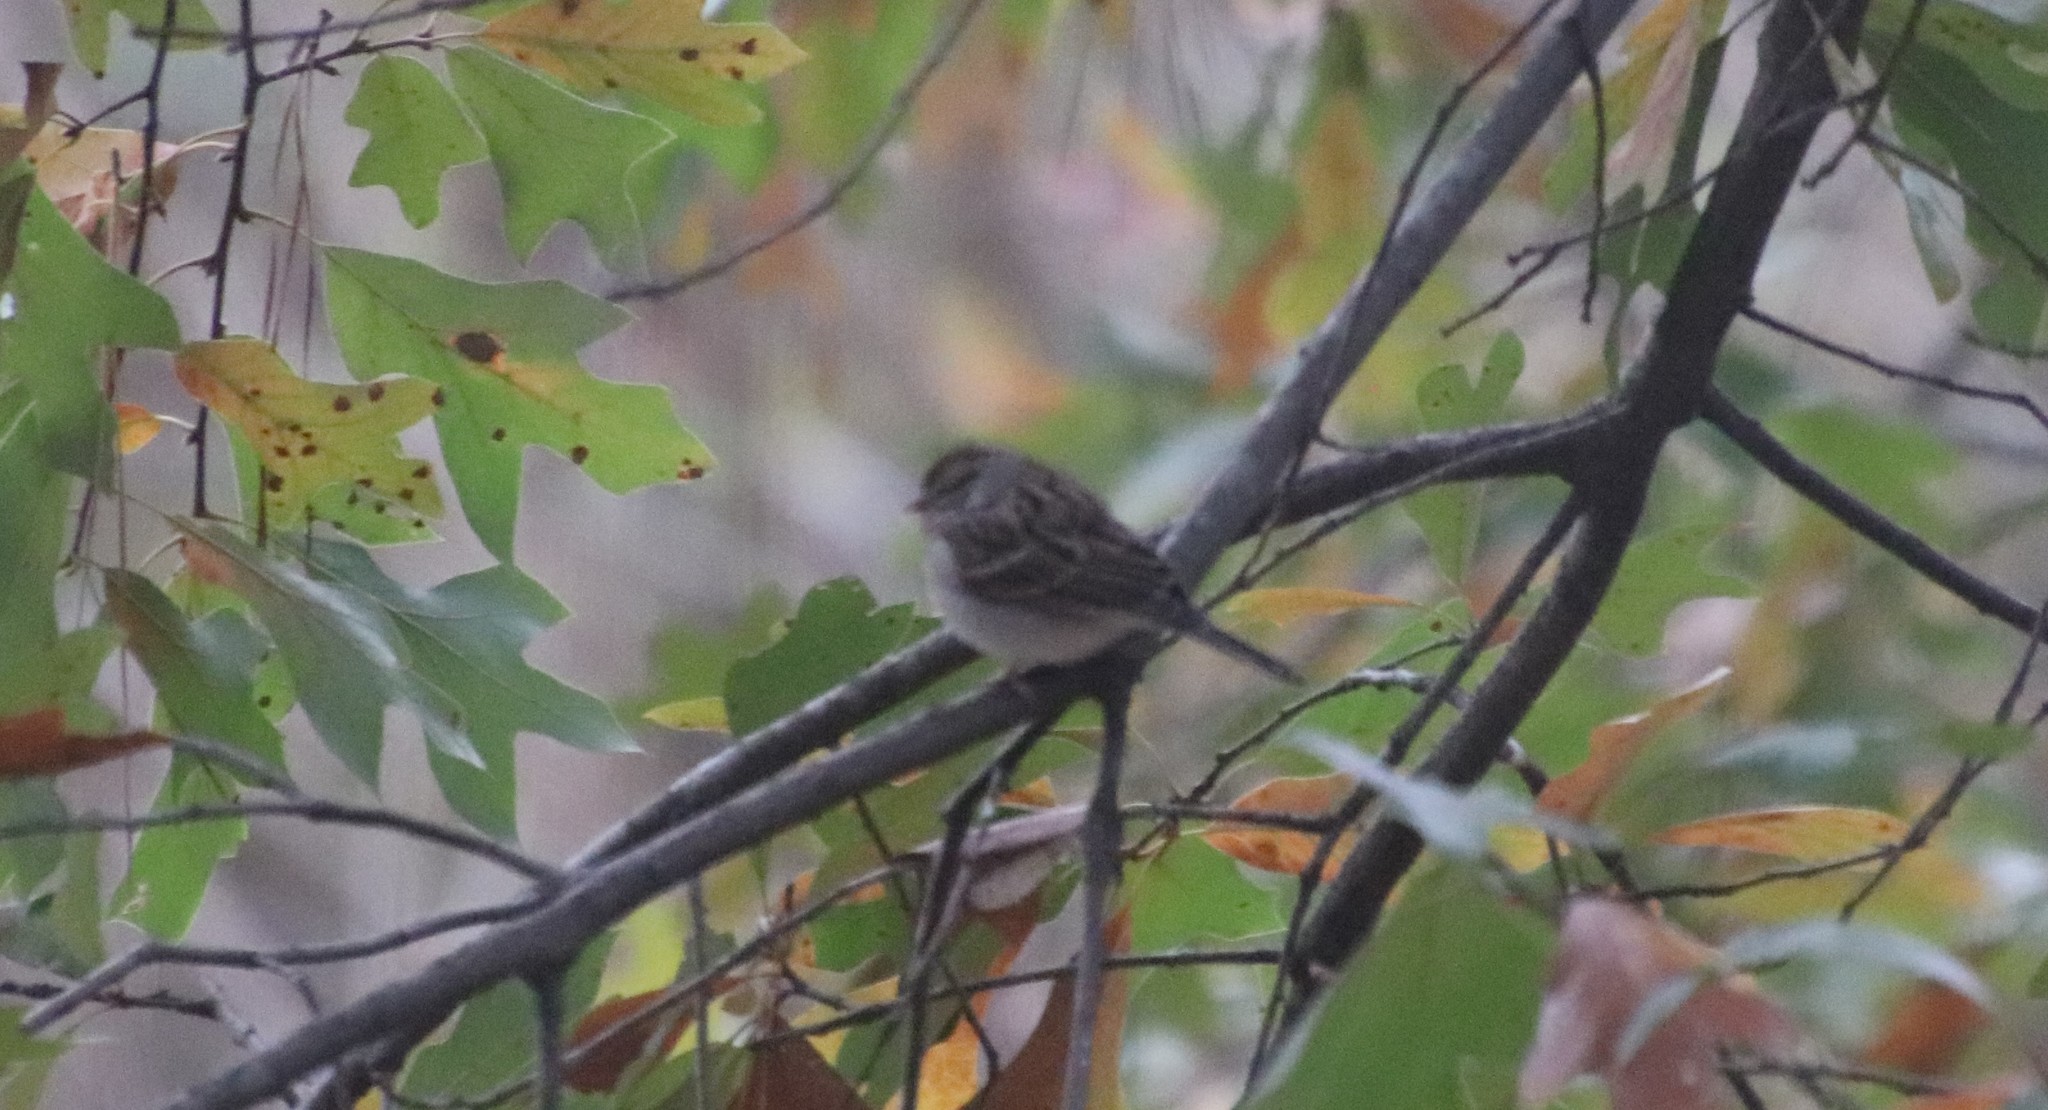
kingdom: Animalia
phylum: Chordata
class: Aves
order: Passeriformes
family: Passerellidae
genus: Spizella
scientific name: Spizella passerina
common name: Chipping sparrow
